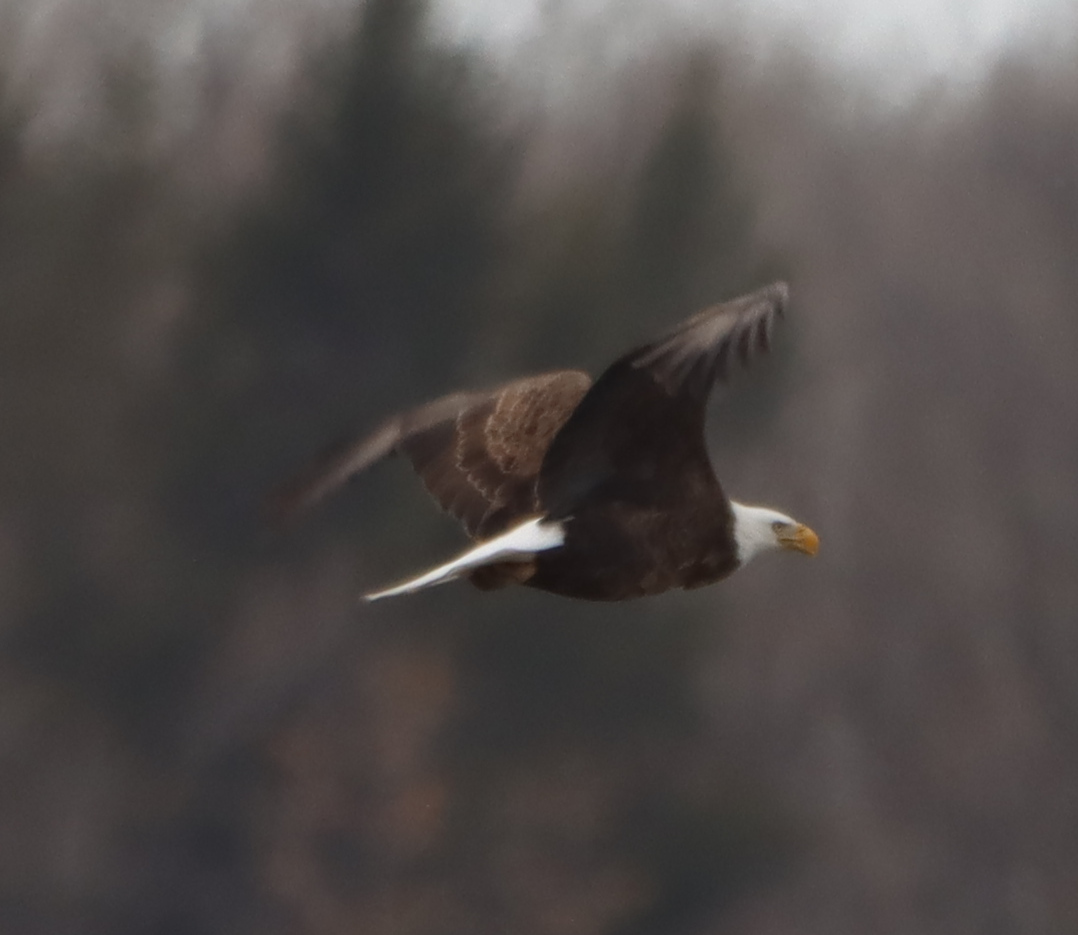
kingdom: Animalia
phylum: Chordata
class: Aves
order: Accipitriformes
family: Accipitridae
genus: Haliaeetus
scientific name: Haliaeetus leucocephalus
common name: Bald eagle
